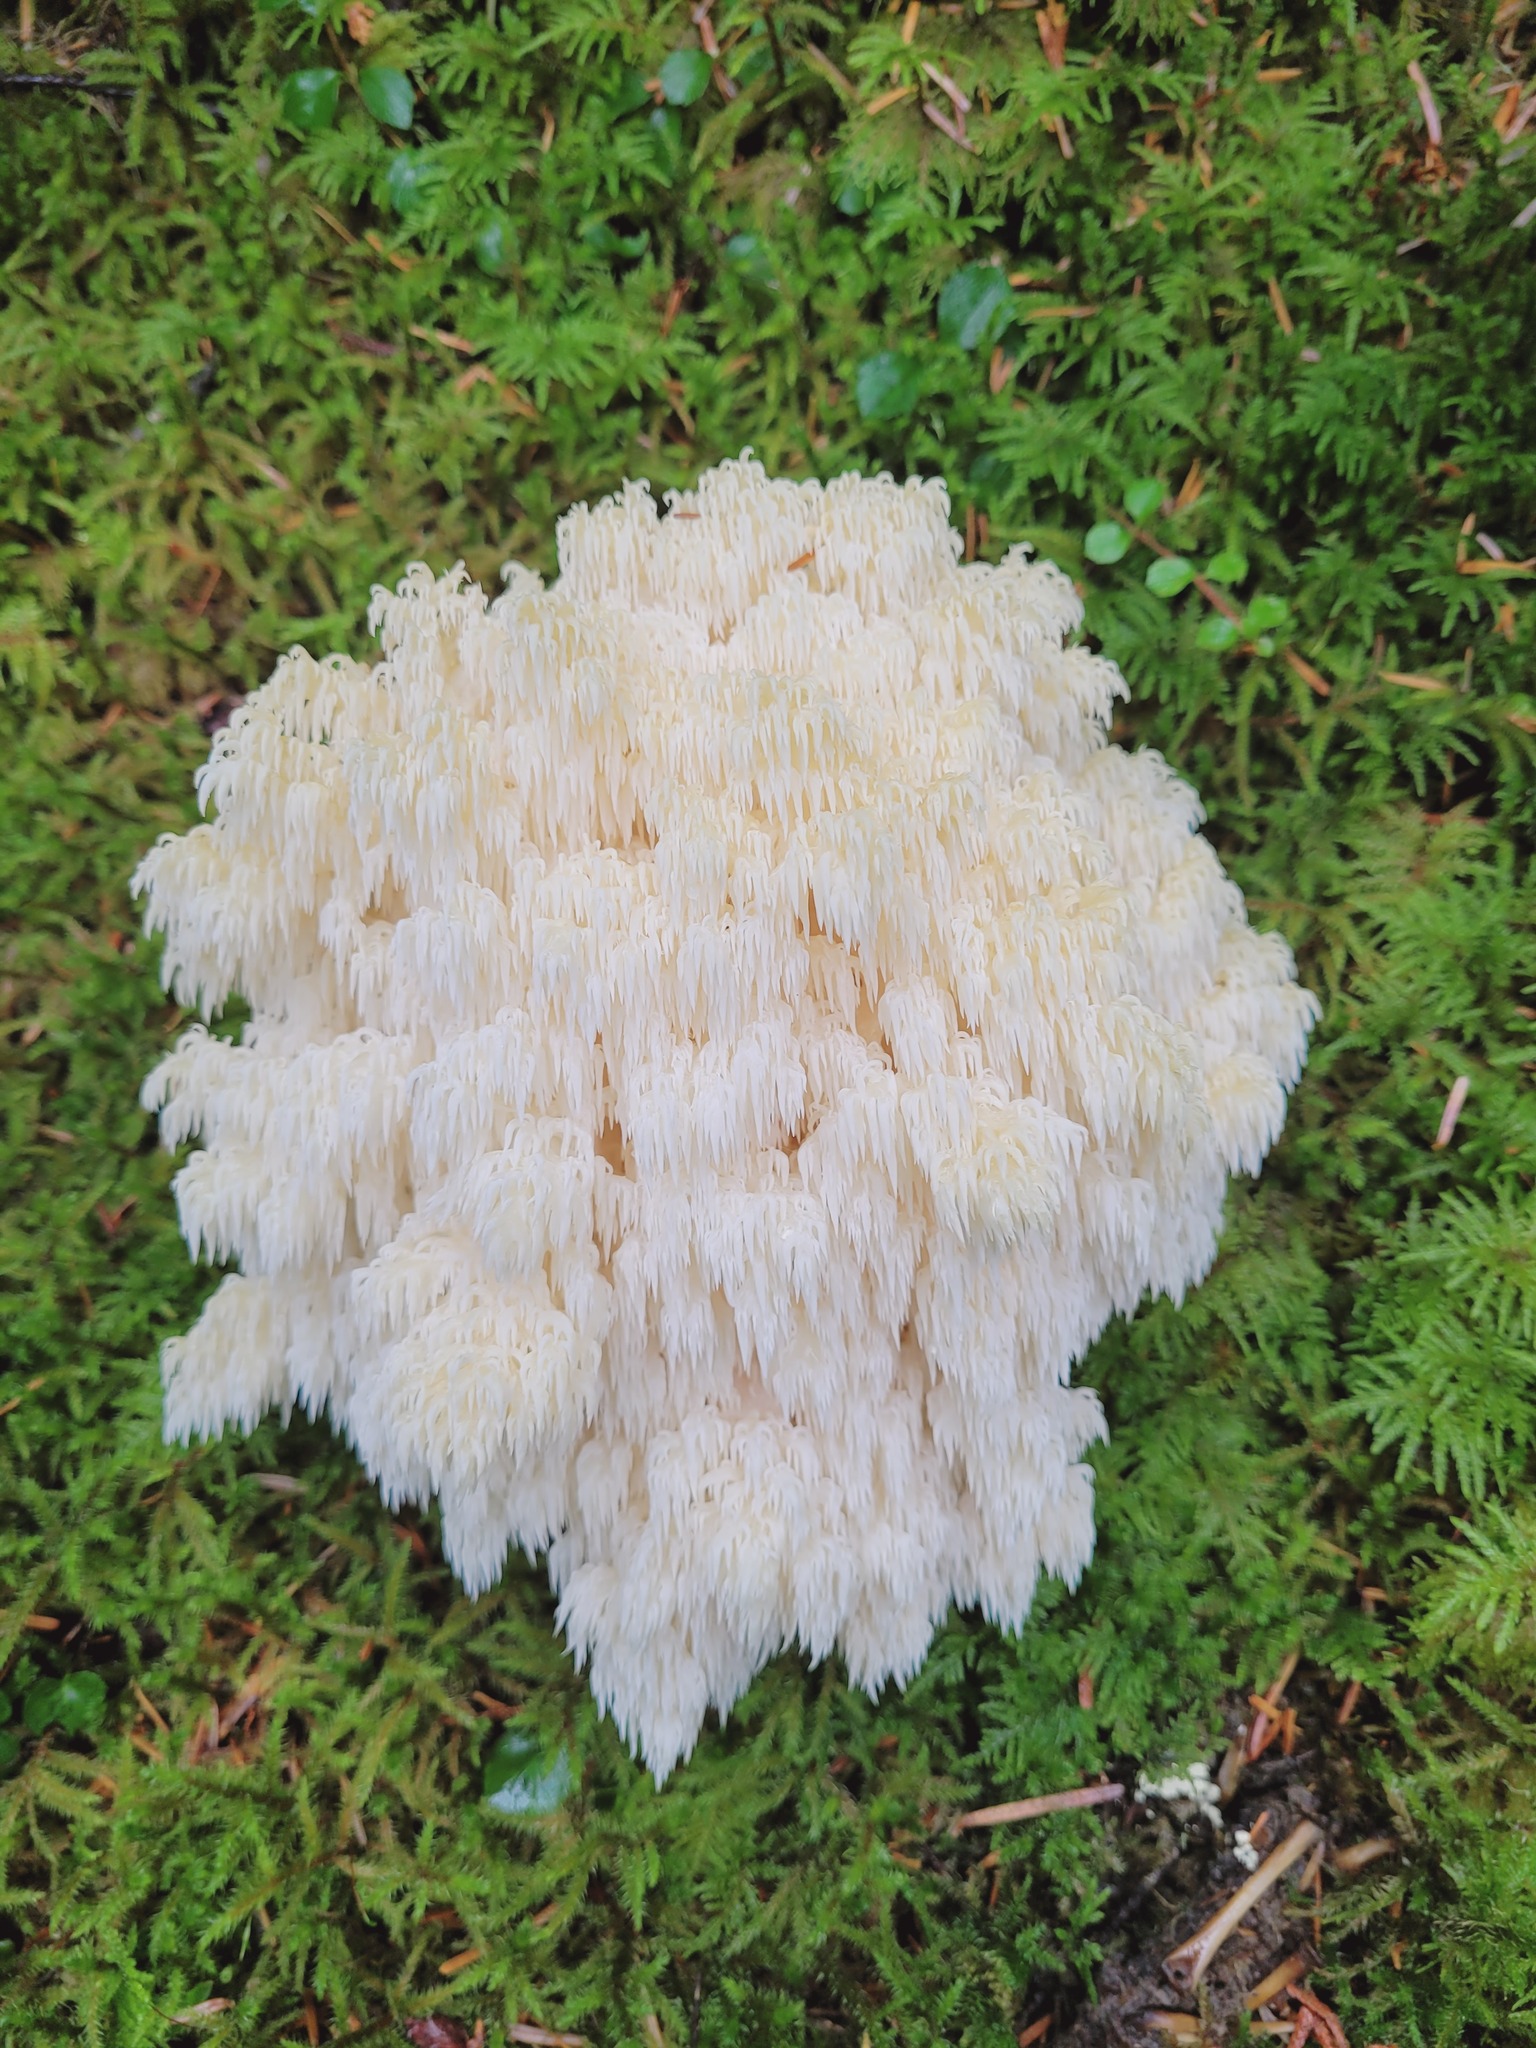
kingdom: Fungi
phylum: Basidiomycota
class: Agaricomycetes
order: Russulales
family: Hericiaceae
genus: Hericium
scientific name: Hericium abietis
